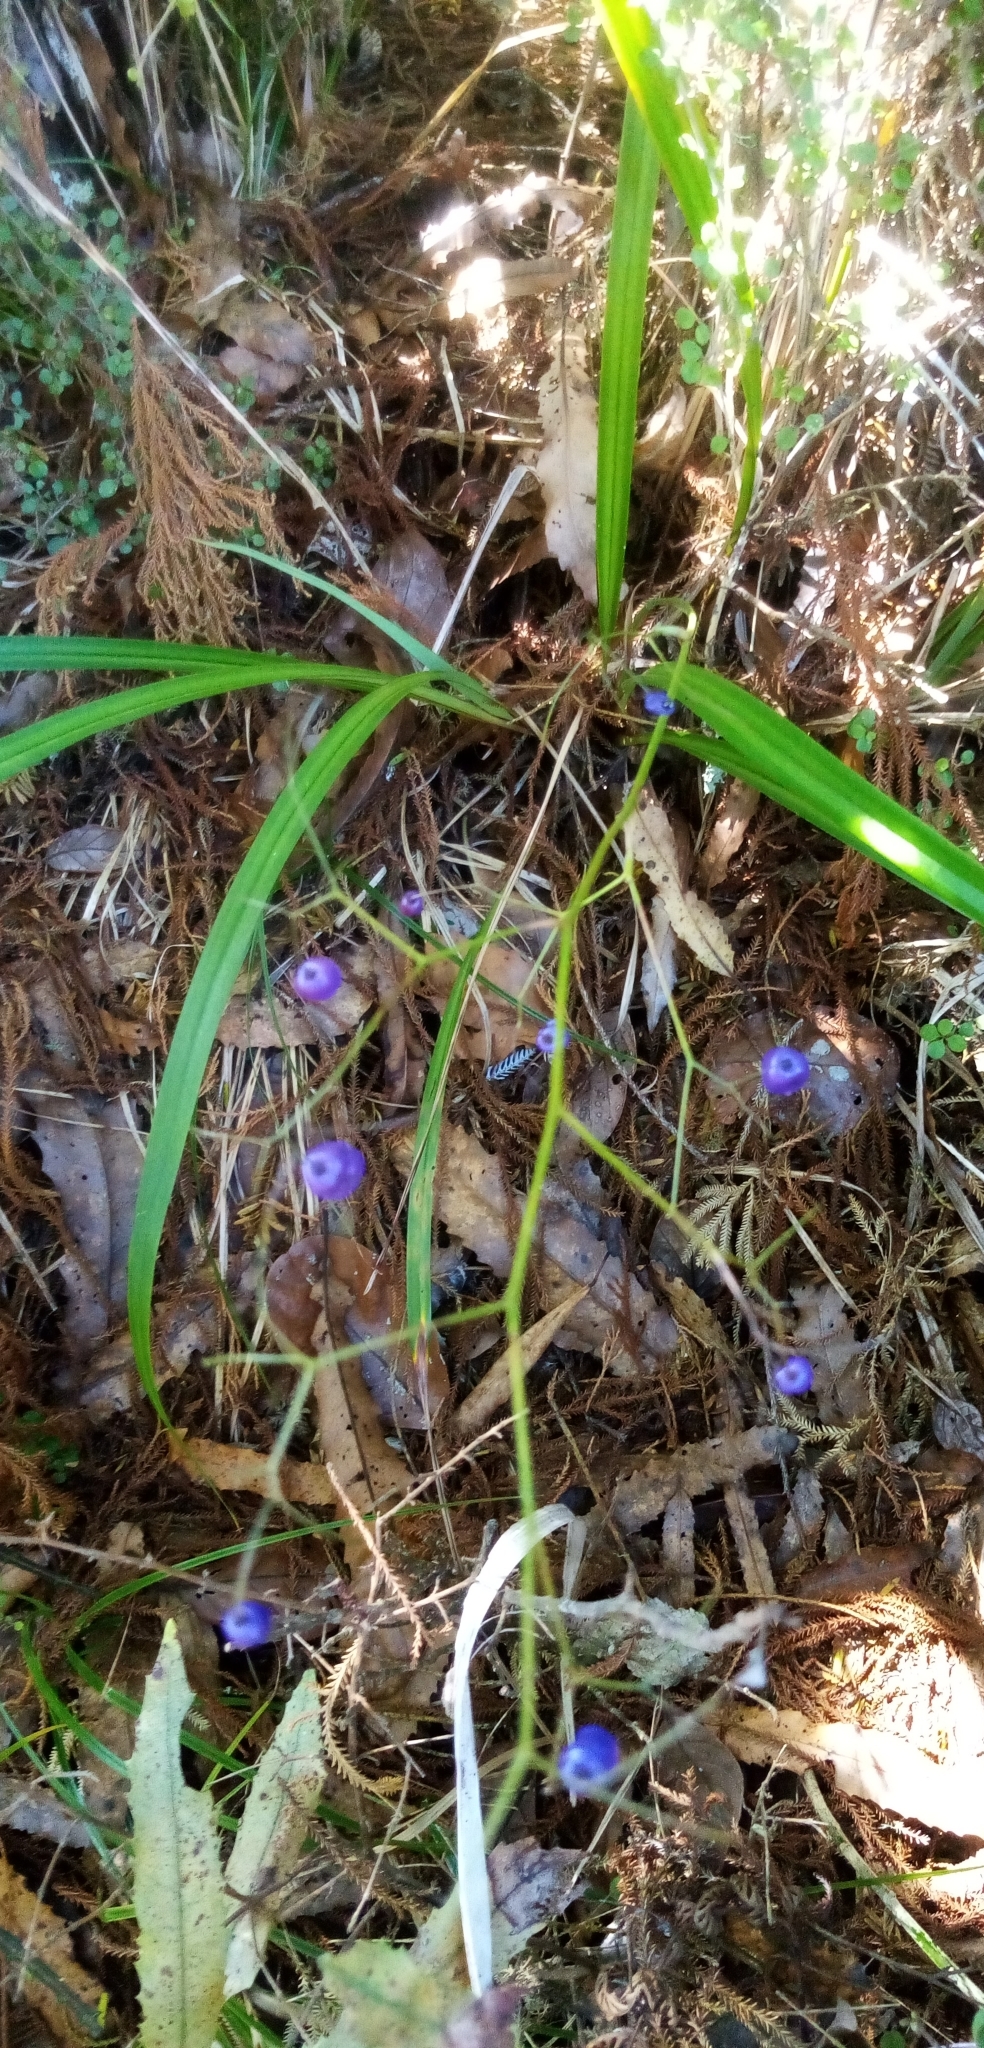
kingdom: Plantae
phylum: Tracheophyta
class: Liliopsida
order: Asparagales
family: Asphodelaceae
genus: Dianella
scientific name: Dianella nigra
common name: New zealand-blueberry
